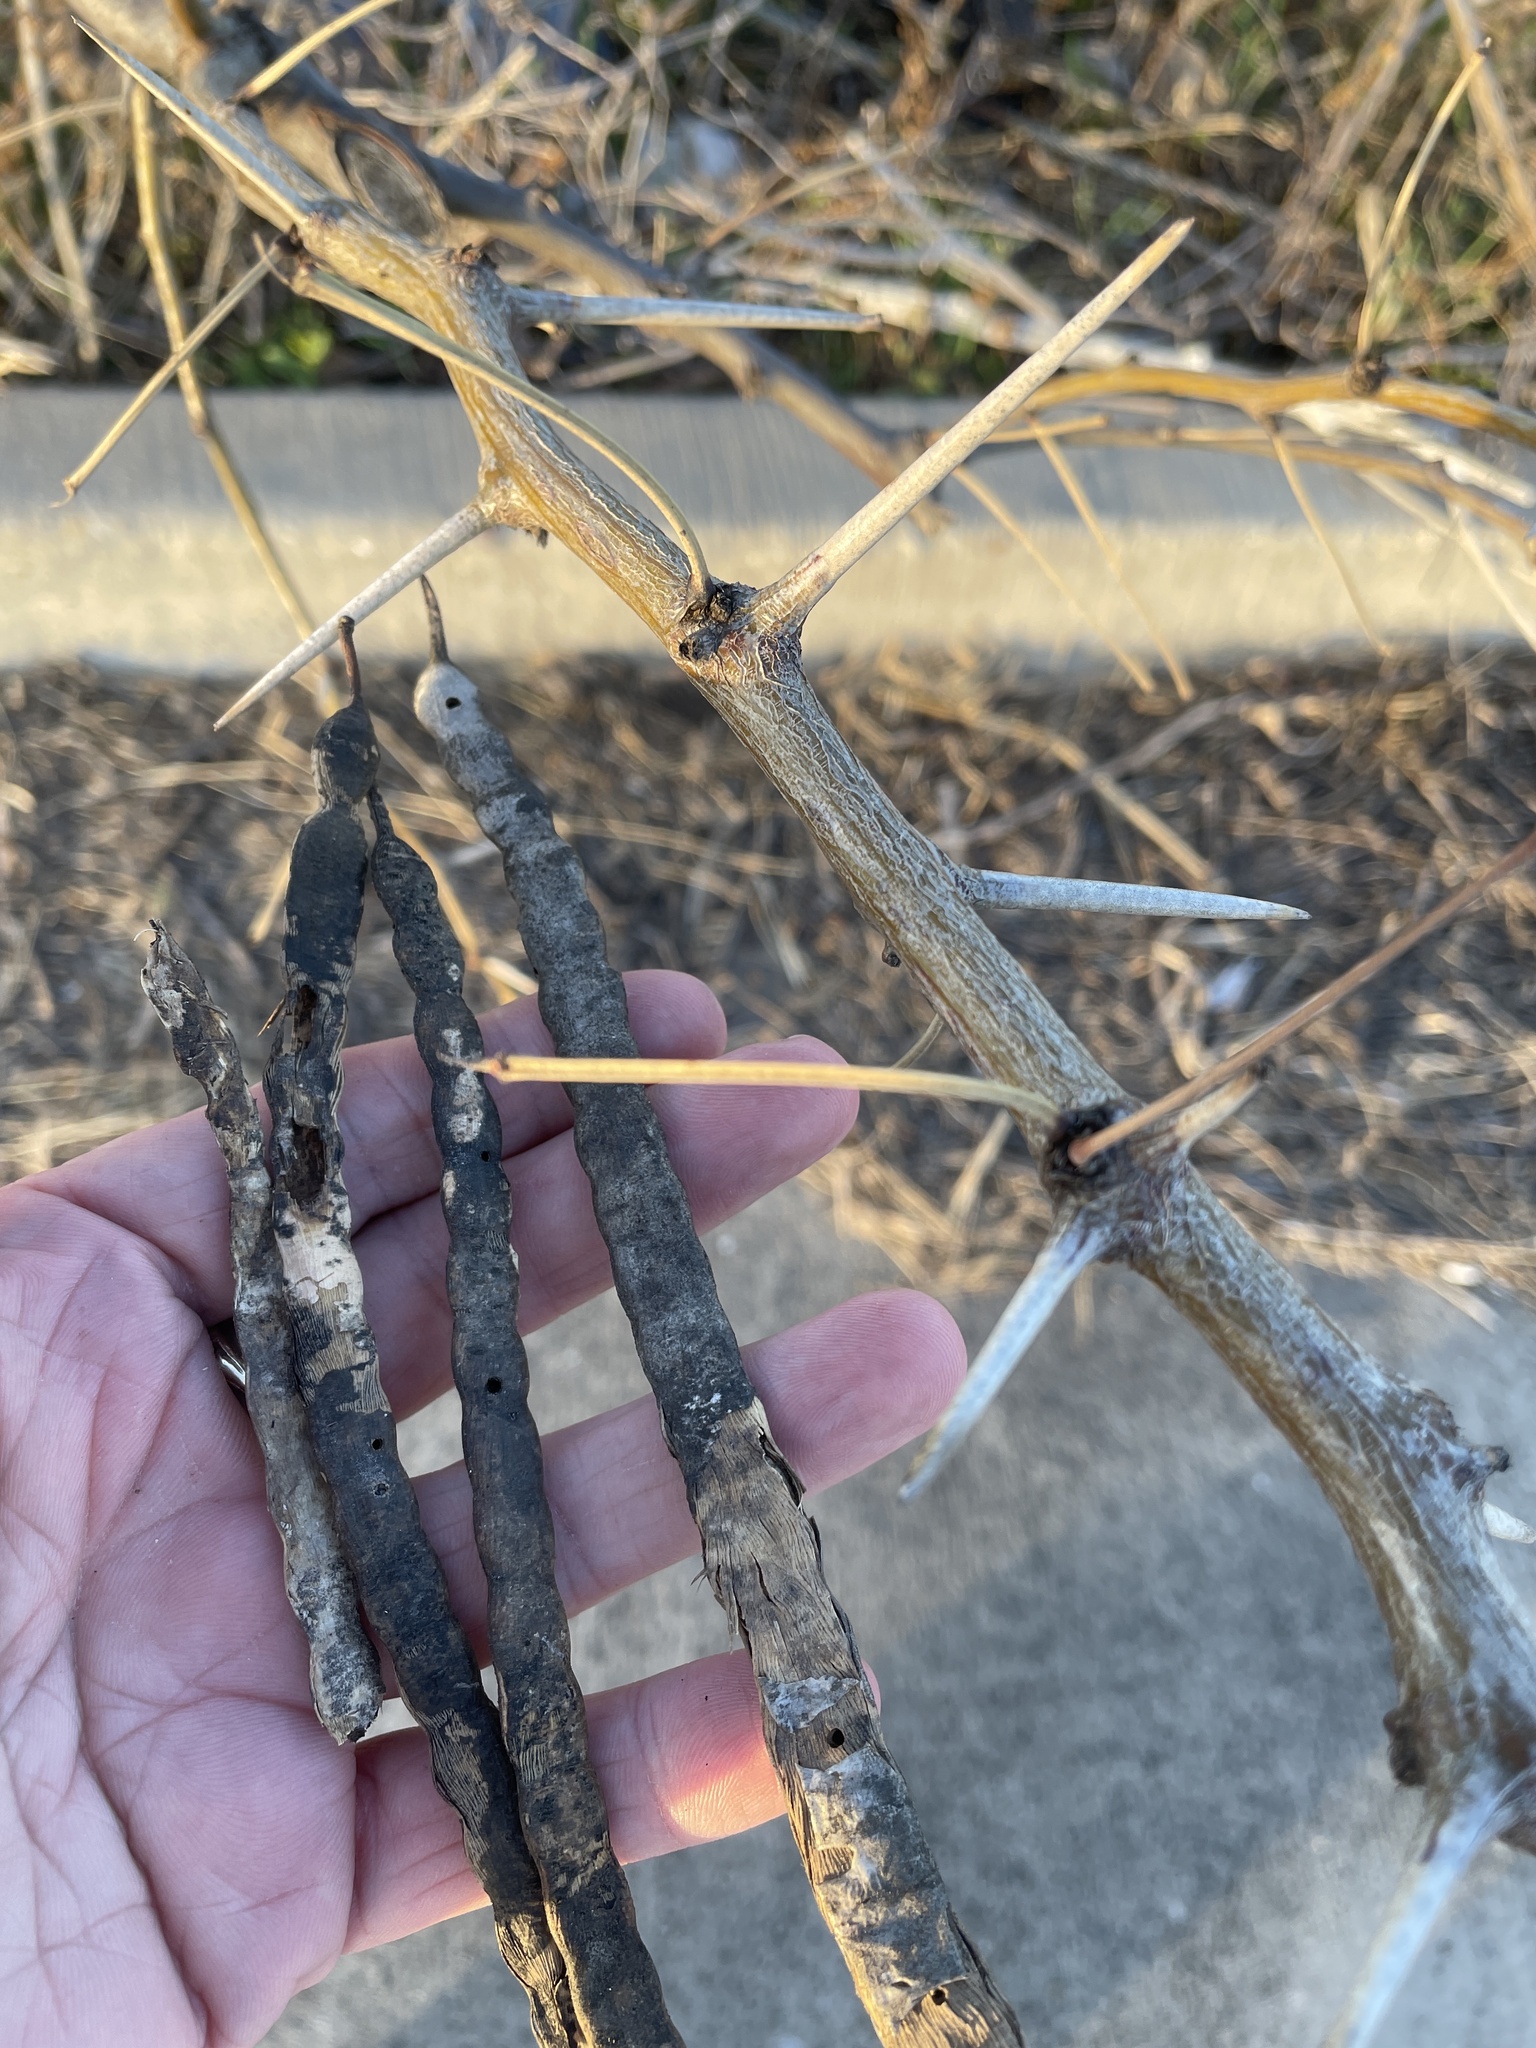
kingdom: Plantae
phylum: Tracheophyta
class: Magnoliopsida
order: Fabales
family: Fabaceae
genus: Prosopis
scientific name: Prosopis glandulosa
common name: Honey mesquite
